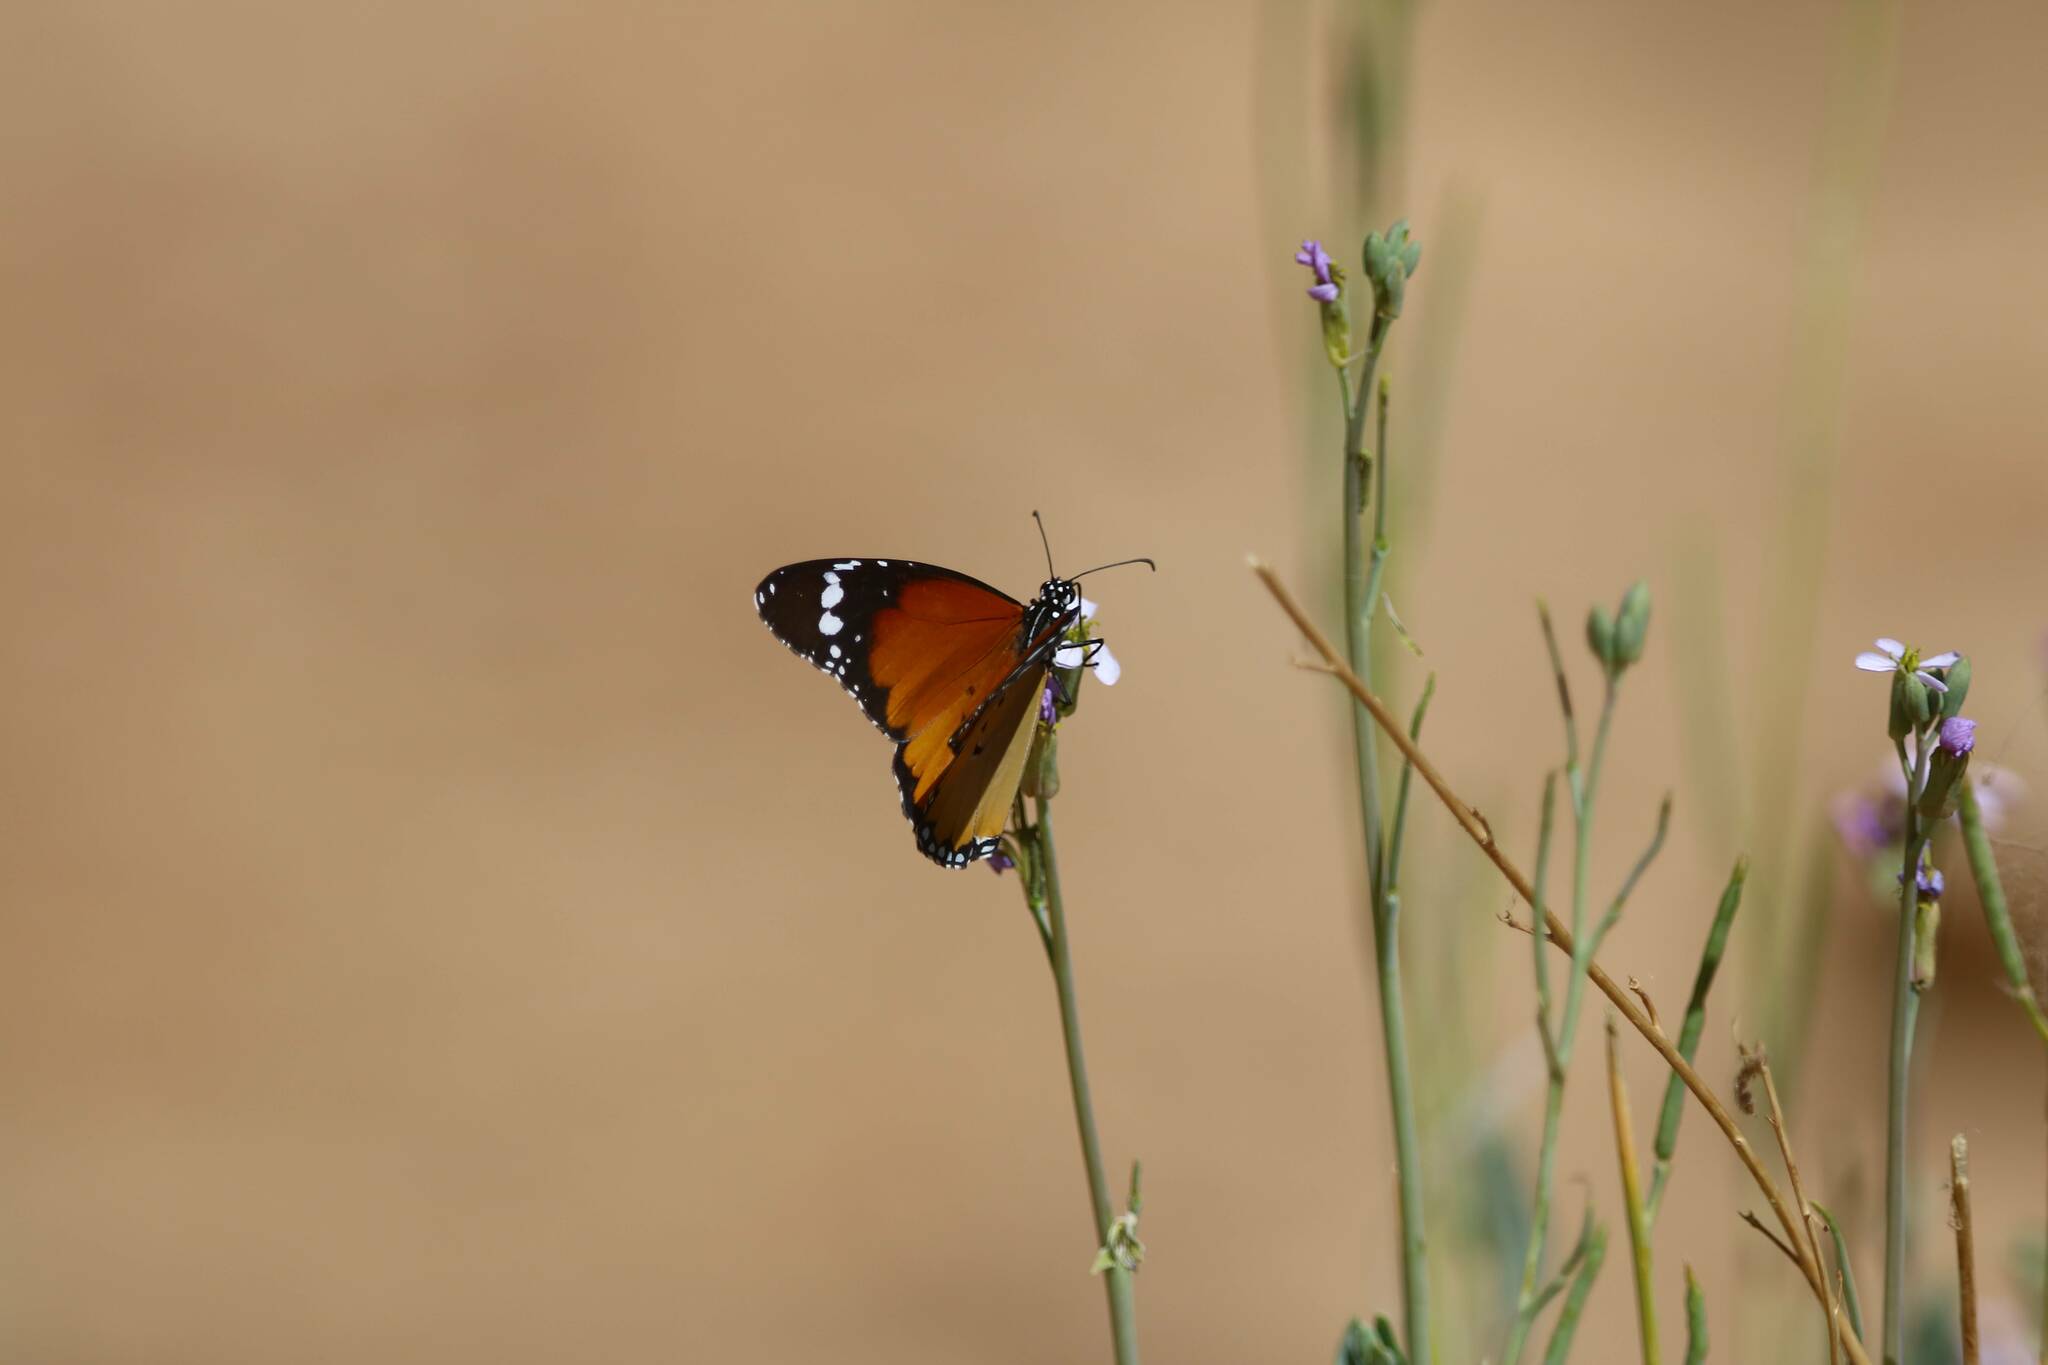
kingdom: Animalia
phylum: Arthropoda
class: Insecta
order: Lepidoptera
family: Nymphalidae
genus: Danaus
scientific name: Danaus chrysippus
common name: Plain tiger
